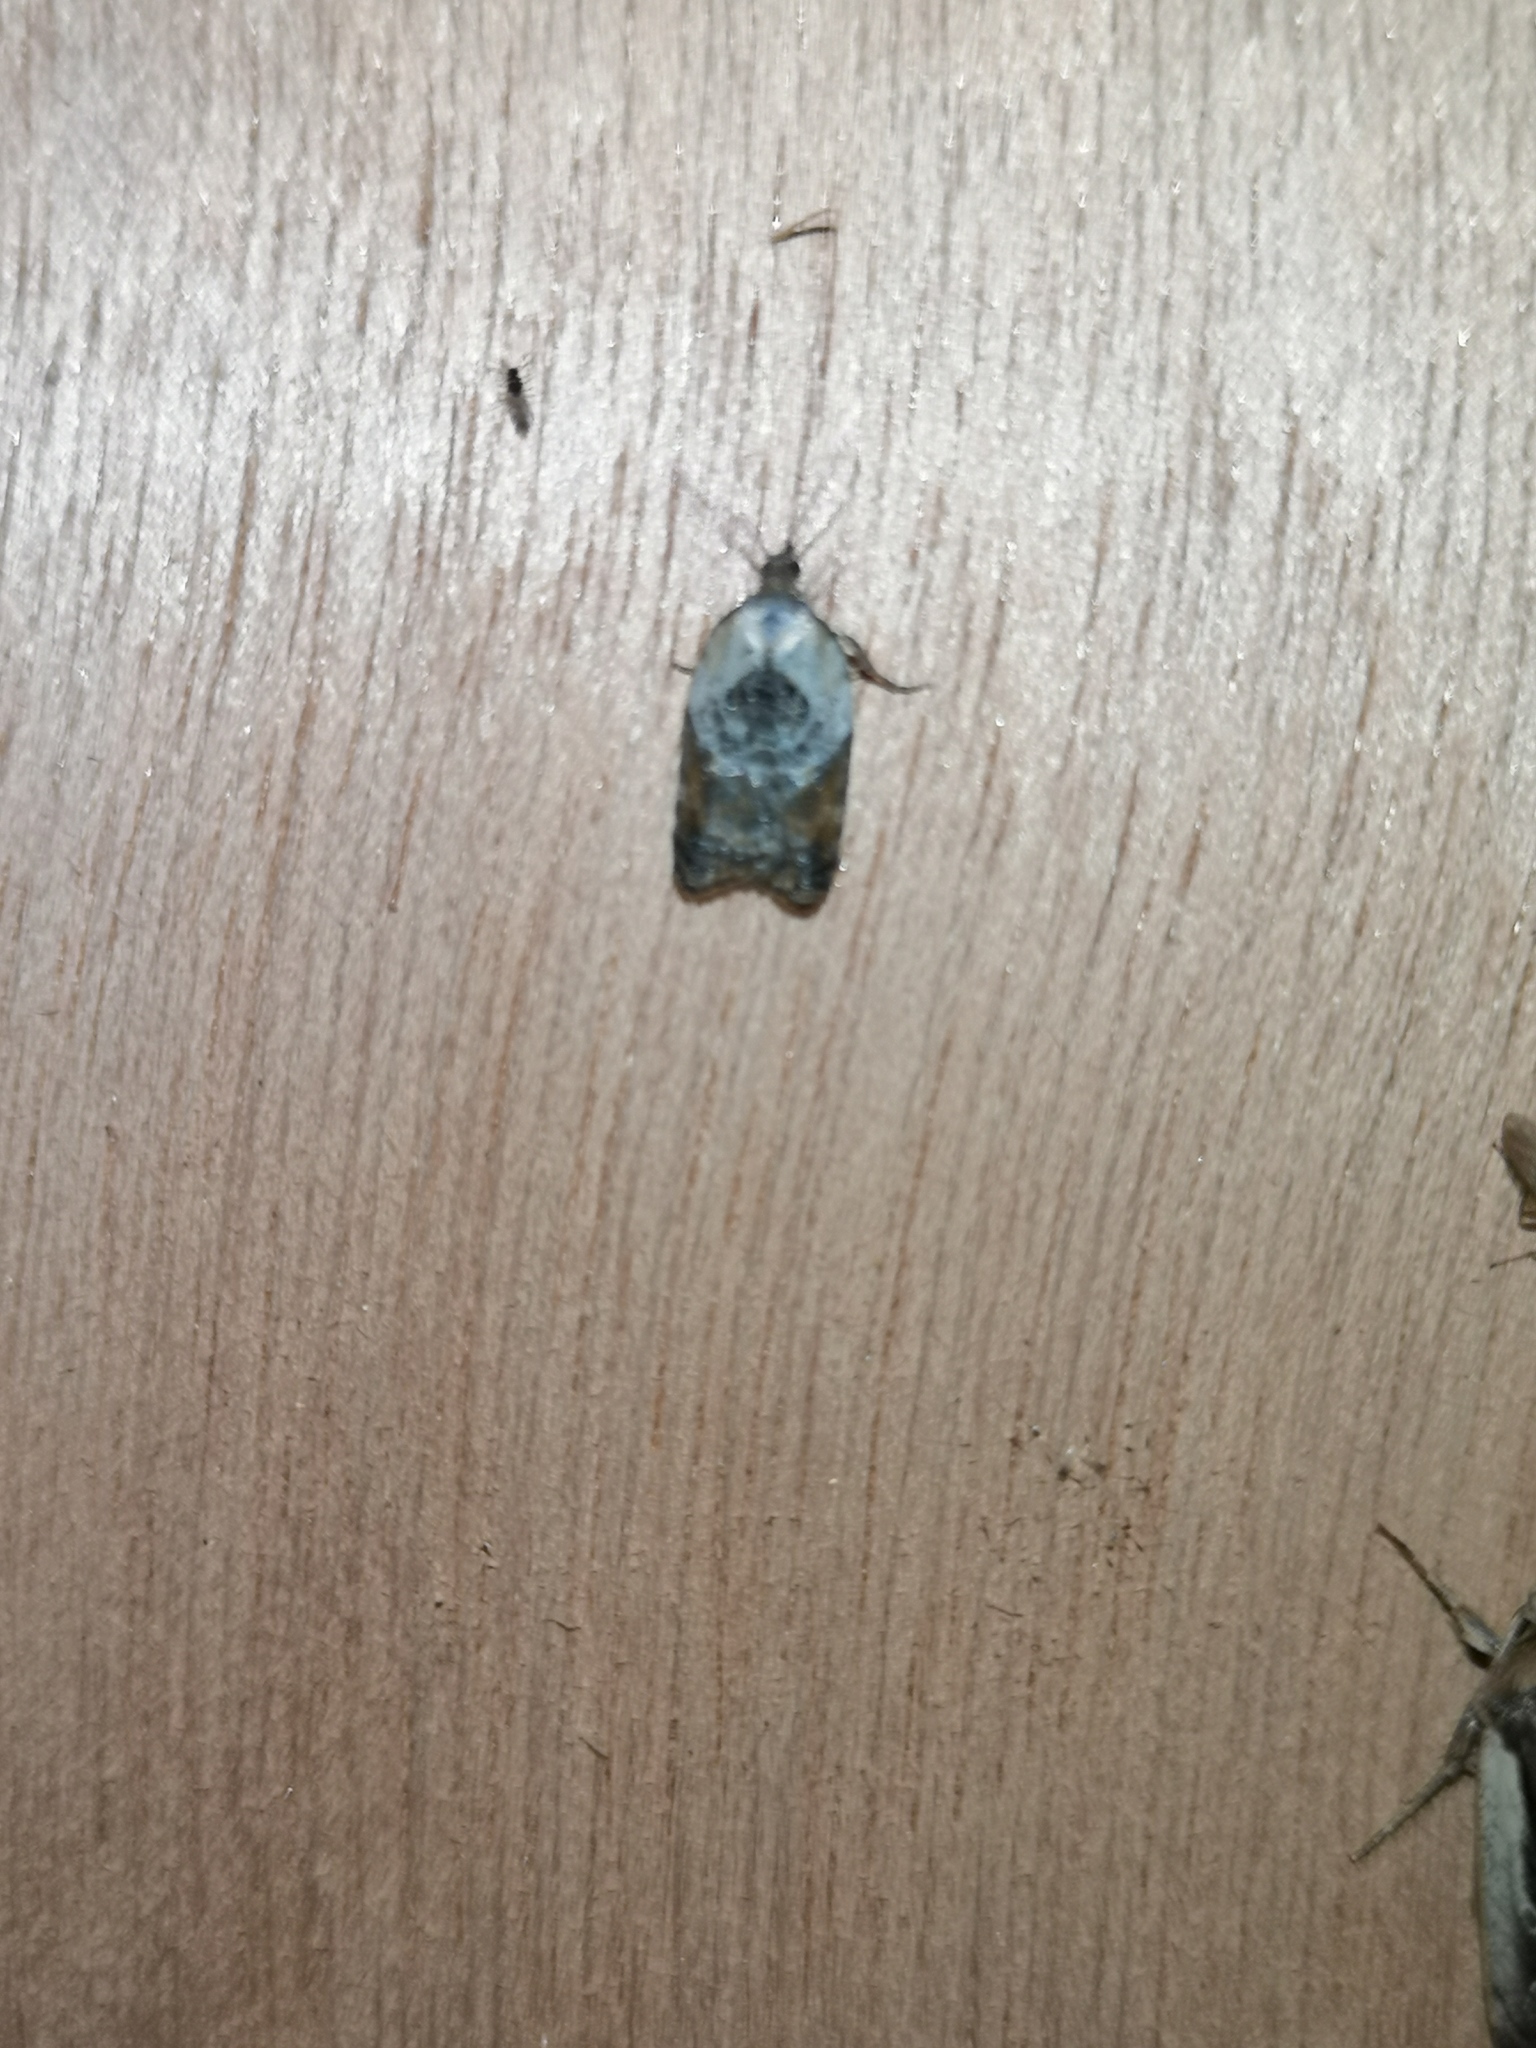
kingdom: Animalia
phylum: Arthropoda
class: Insecta
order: Lepidoptera
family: Tortricidae
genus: Acleris
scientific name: Acleris variegana
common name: Garden rose tortrix
